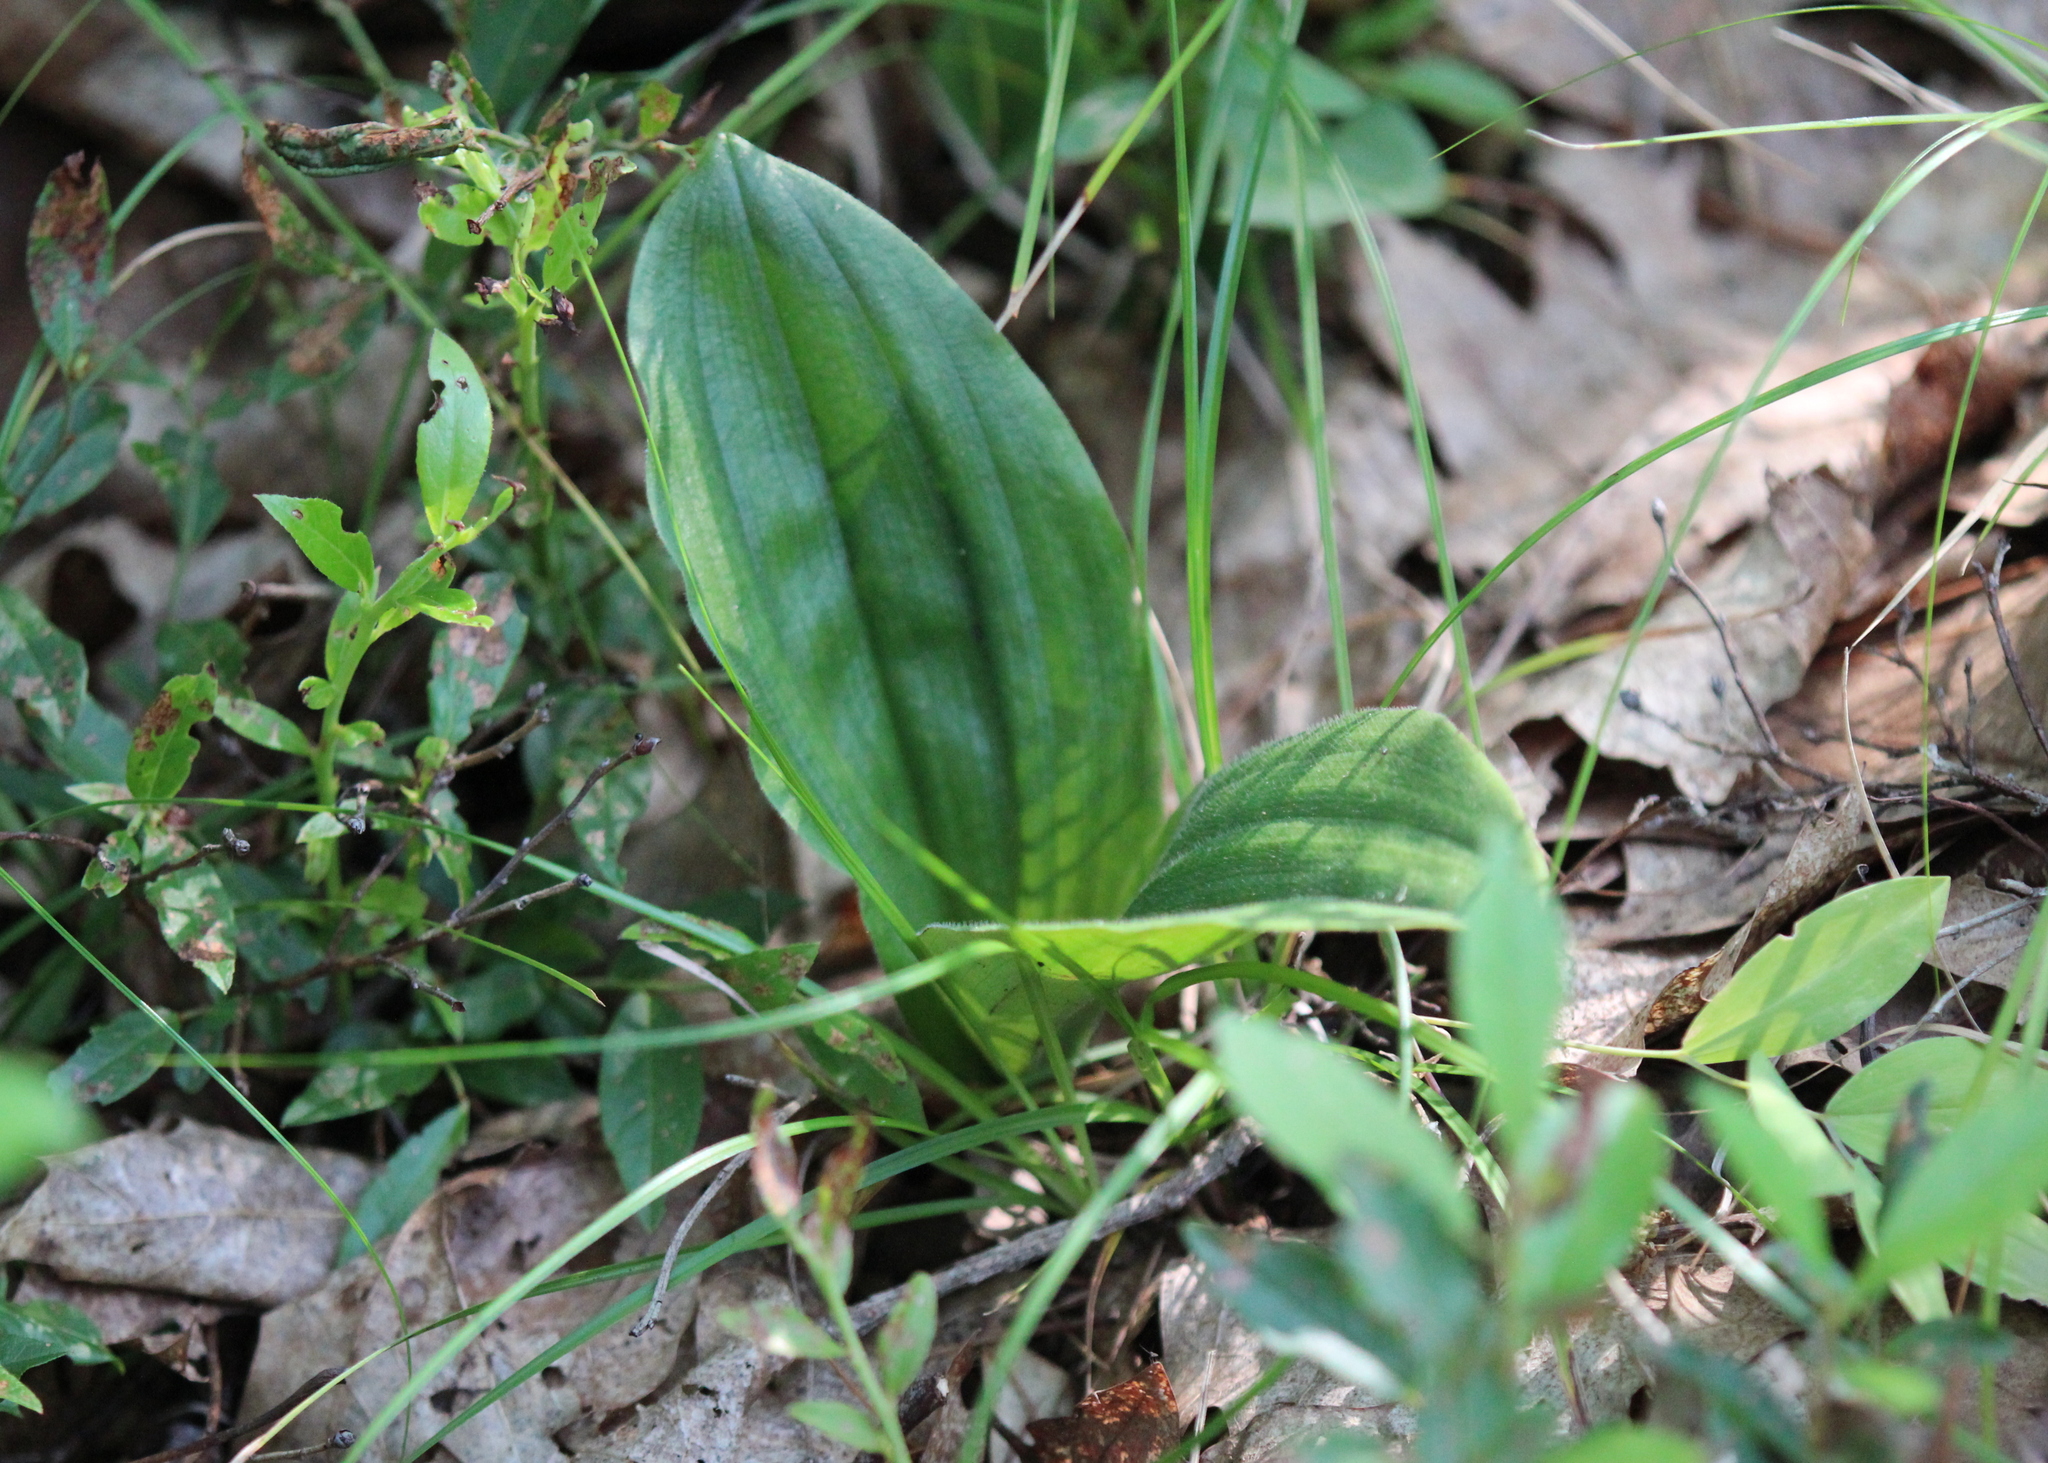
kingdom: Plantae
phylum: Tracheophyta
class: Liliopsida
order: Asparagales
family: Orchidaceae
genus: Cypripedium
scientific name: Cypripedium acaule
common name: Pink lady's-slipper
